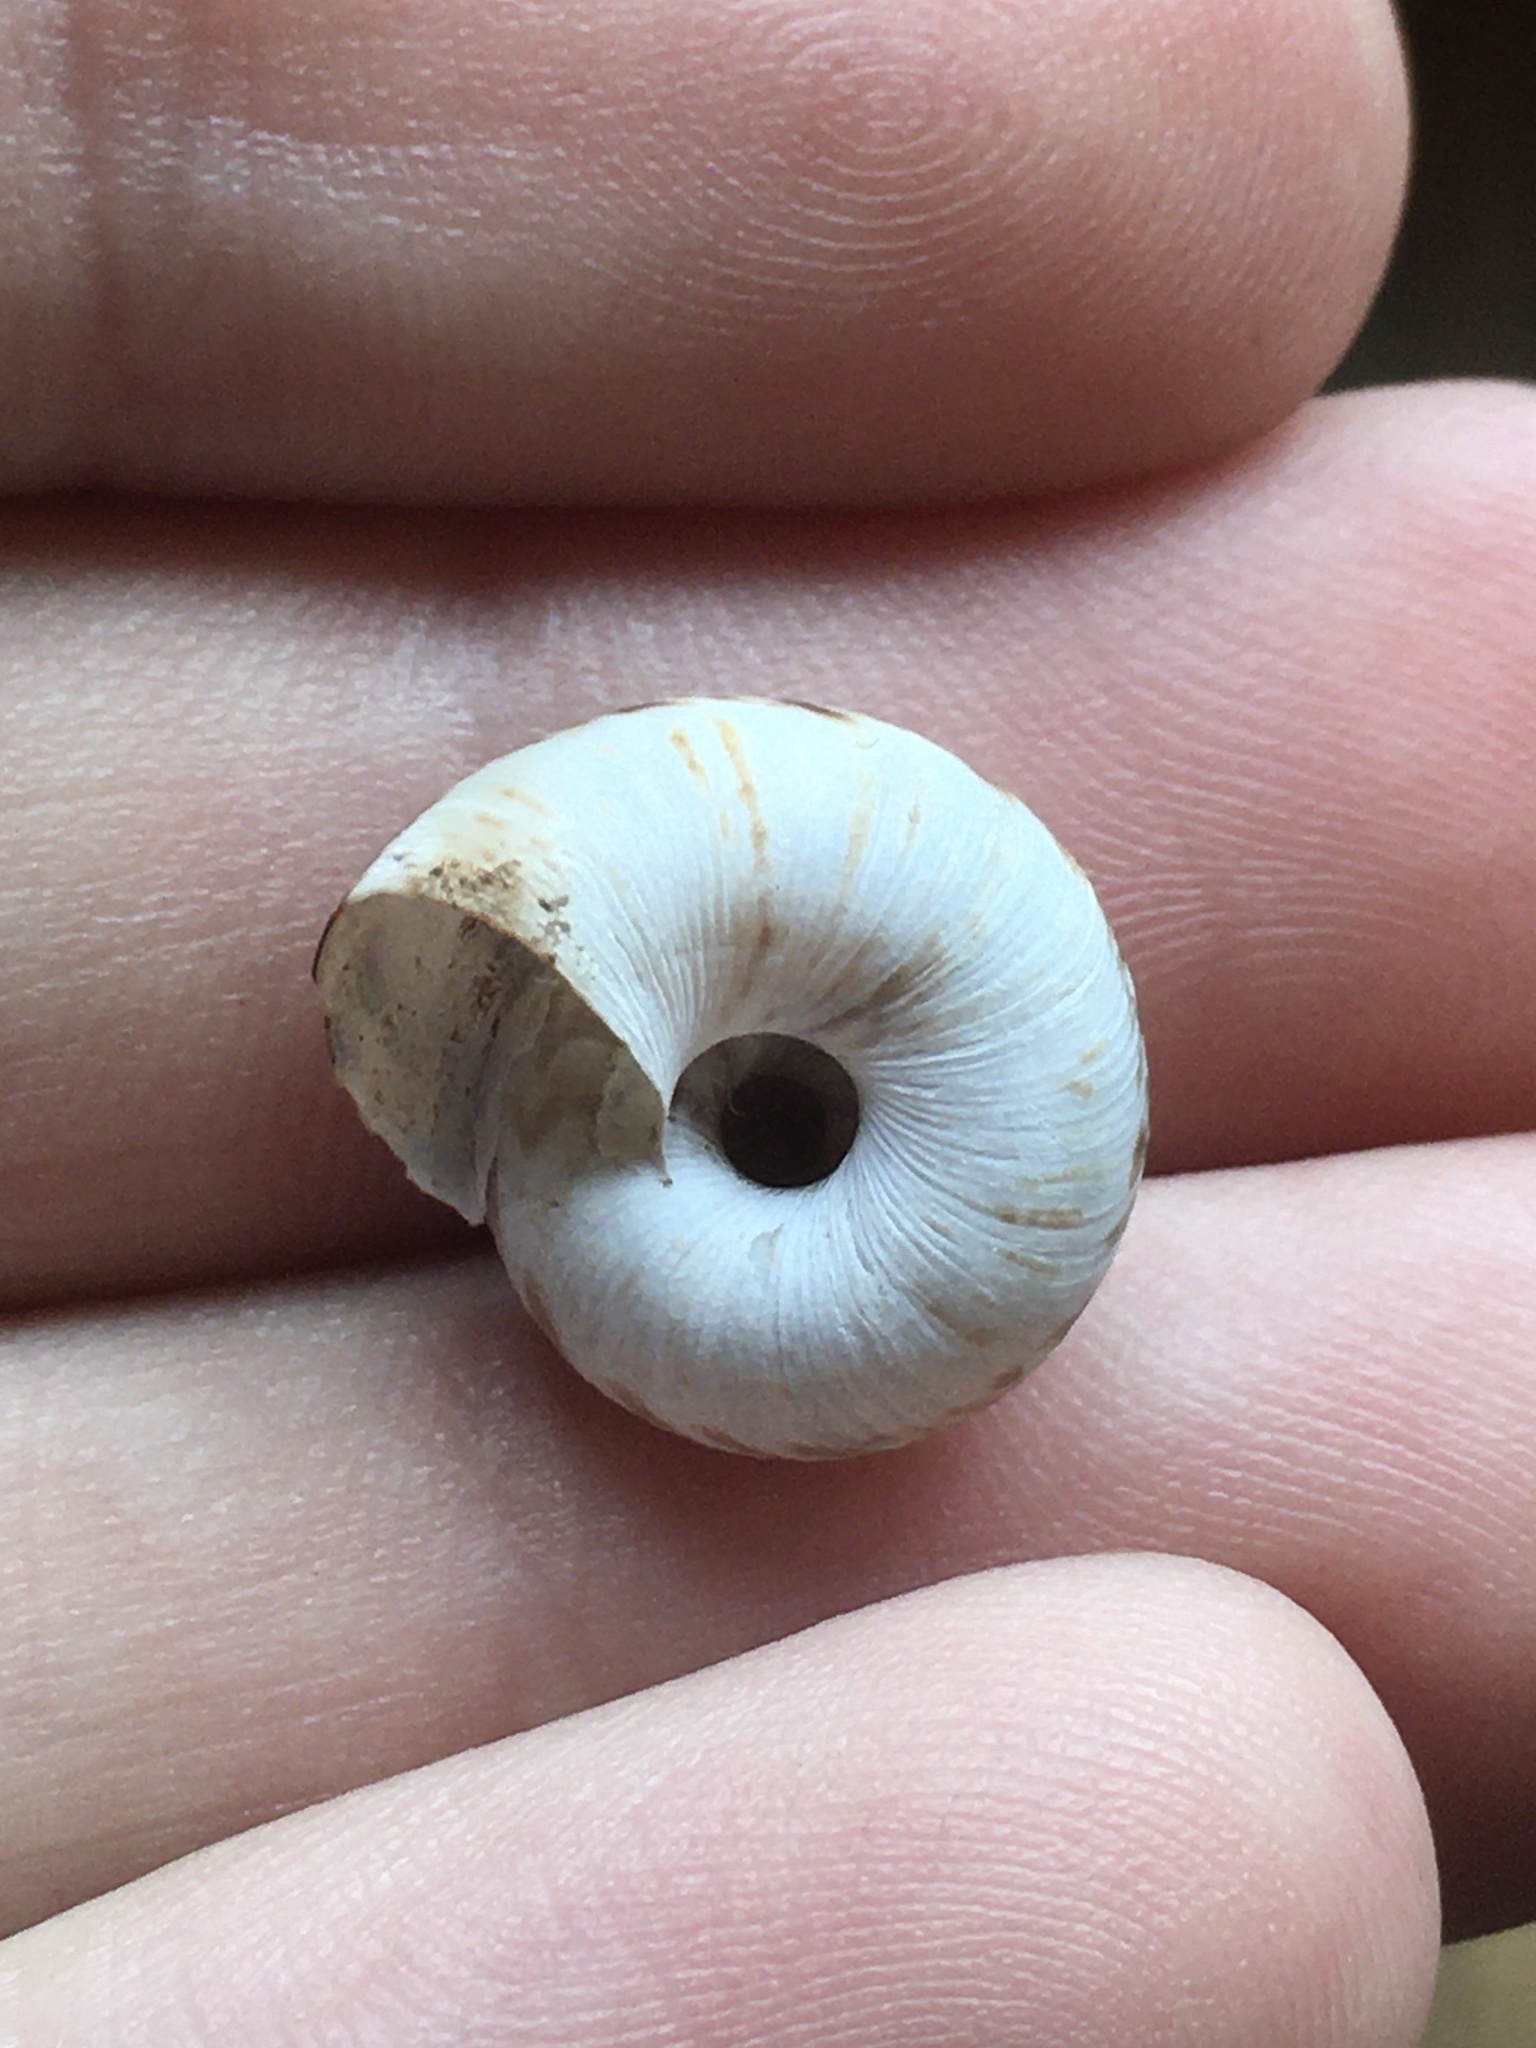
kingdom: Animalia
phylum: Mollusca
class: Gastropoda
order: Stylommatophora
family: Discidae
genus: Anguispira
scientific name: Anguispira alternata
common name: Flamed tigersnail
